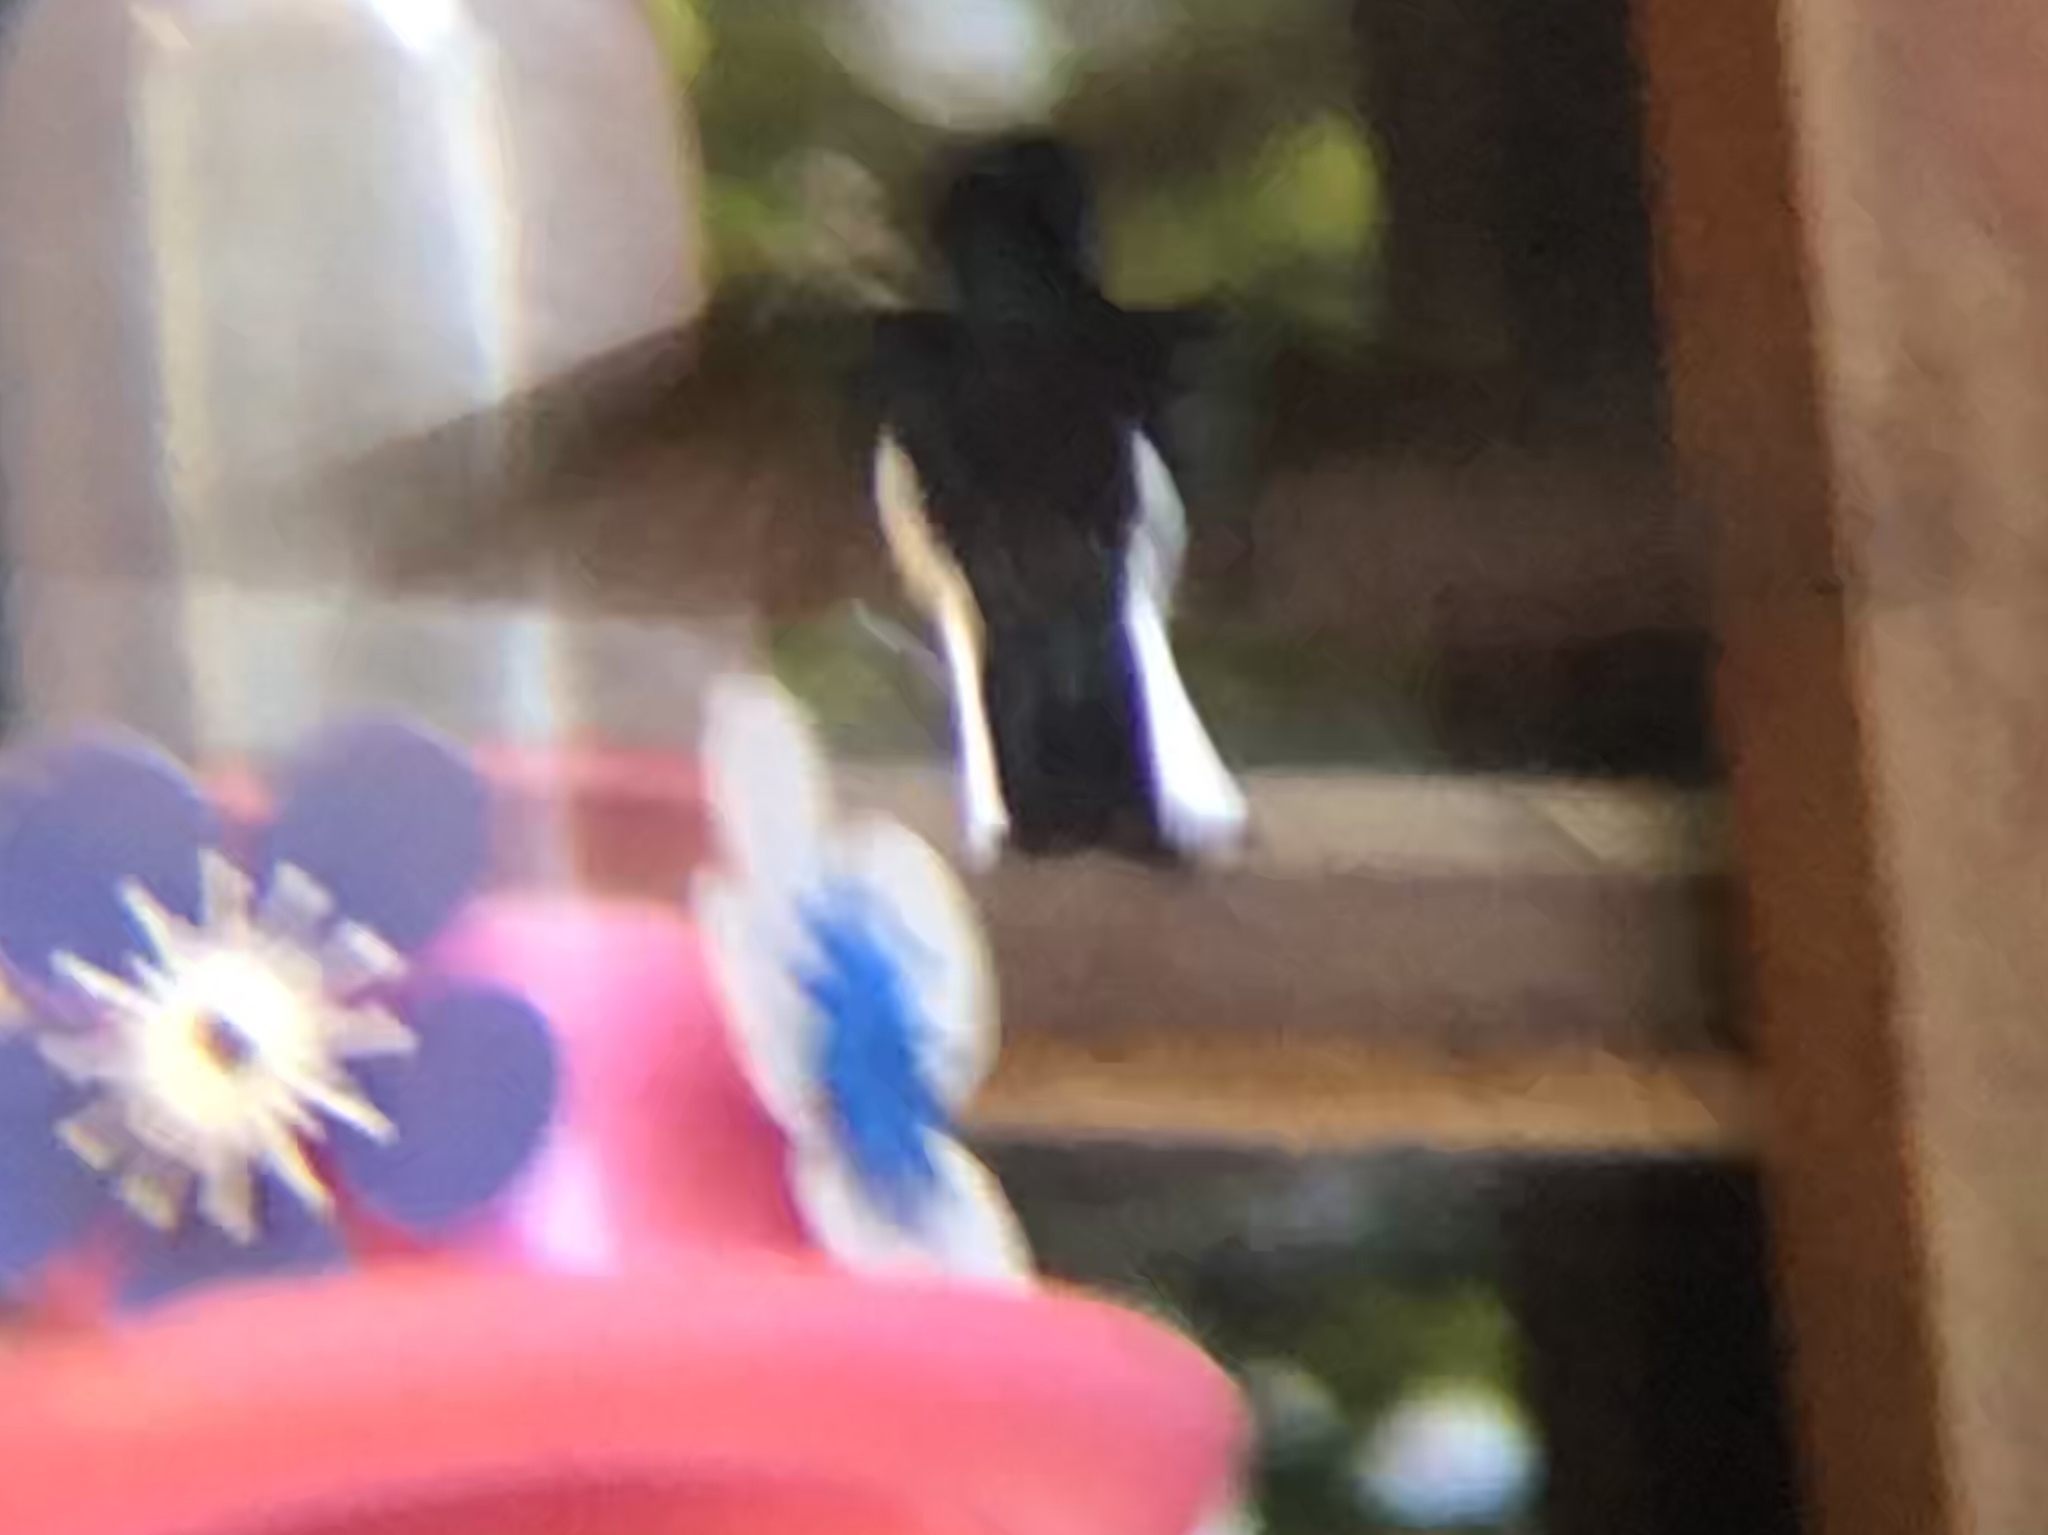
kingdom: Animalia
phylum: Chordata
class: Aves
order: Apodiformes
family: Trochilidae
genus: Florisuga
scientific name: Florisuga fusca
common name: Black jacobin
